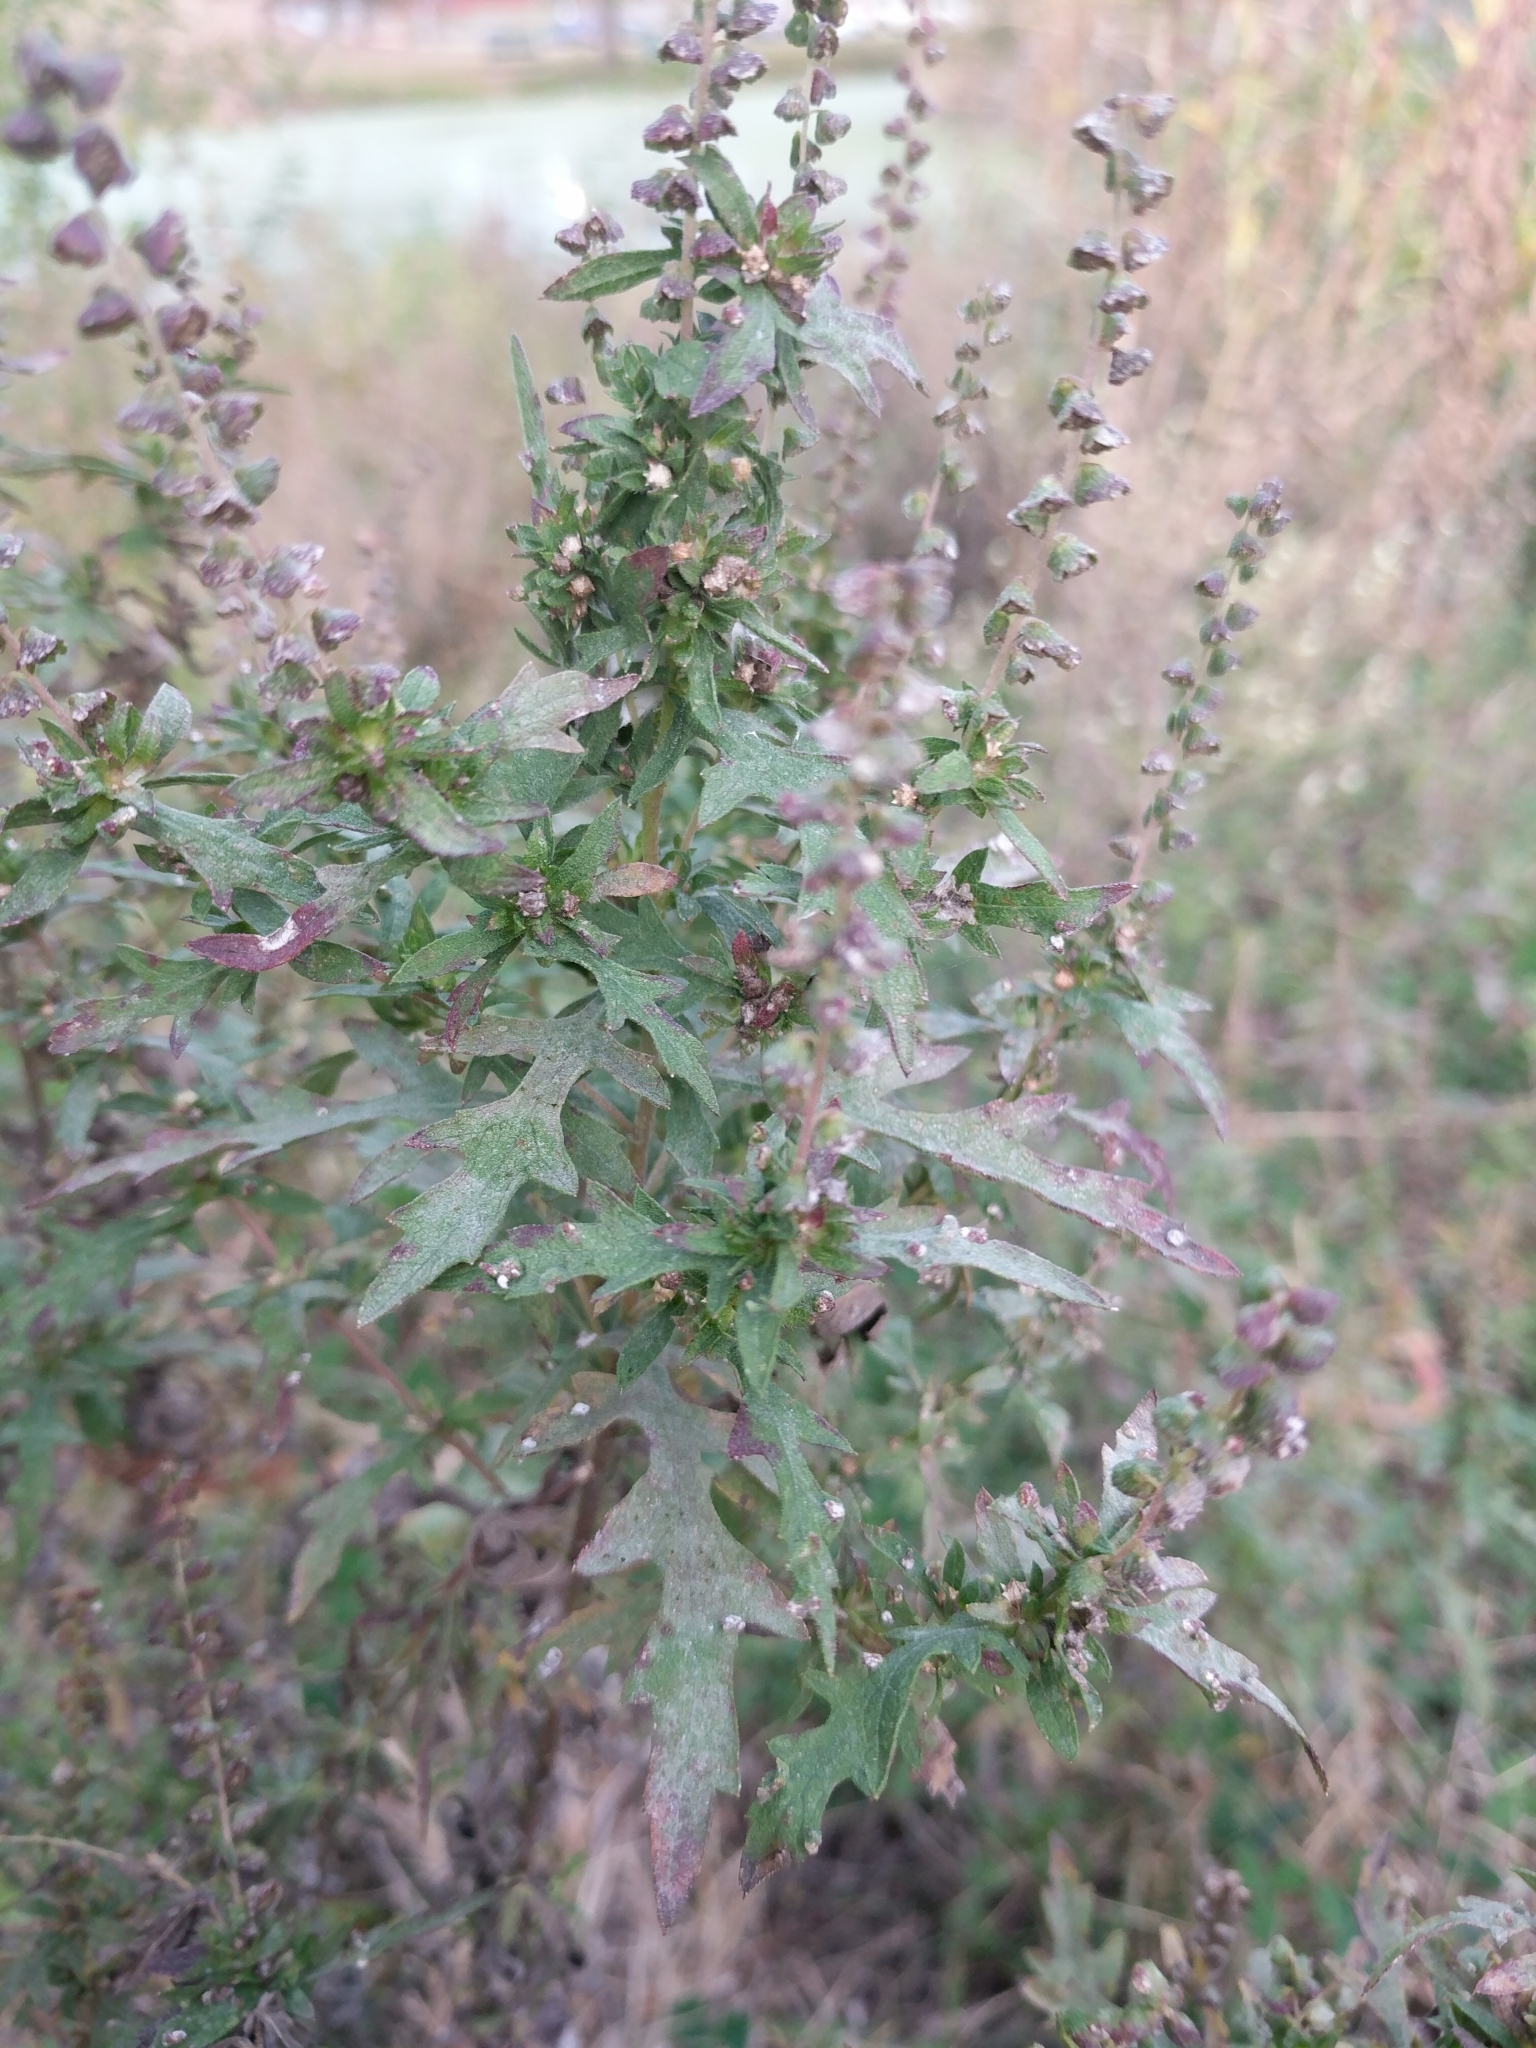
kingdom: Plantae
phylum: Tracheophyta
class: Magnoliopsida
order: Asterales
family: Asteraceae
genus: Ambrosia
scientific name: Ambrosia psilostachya
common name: Perennial ragweed
